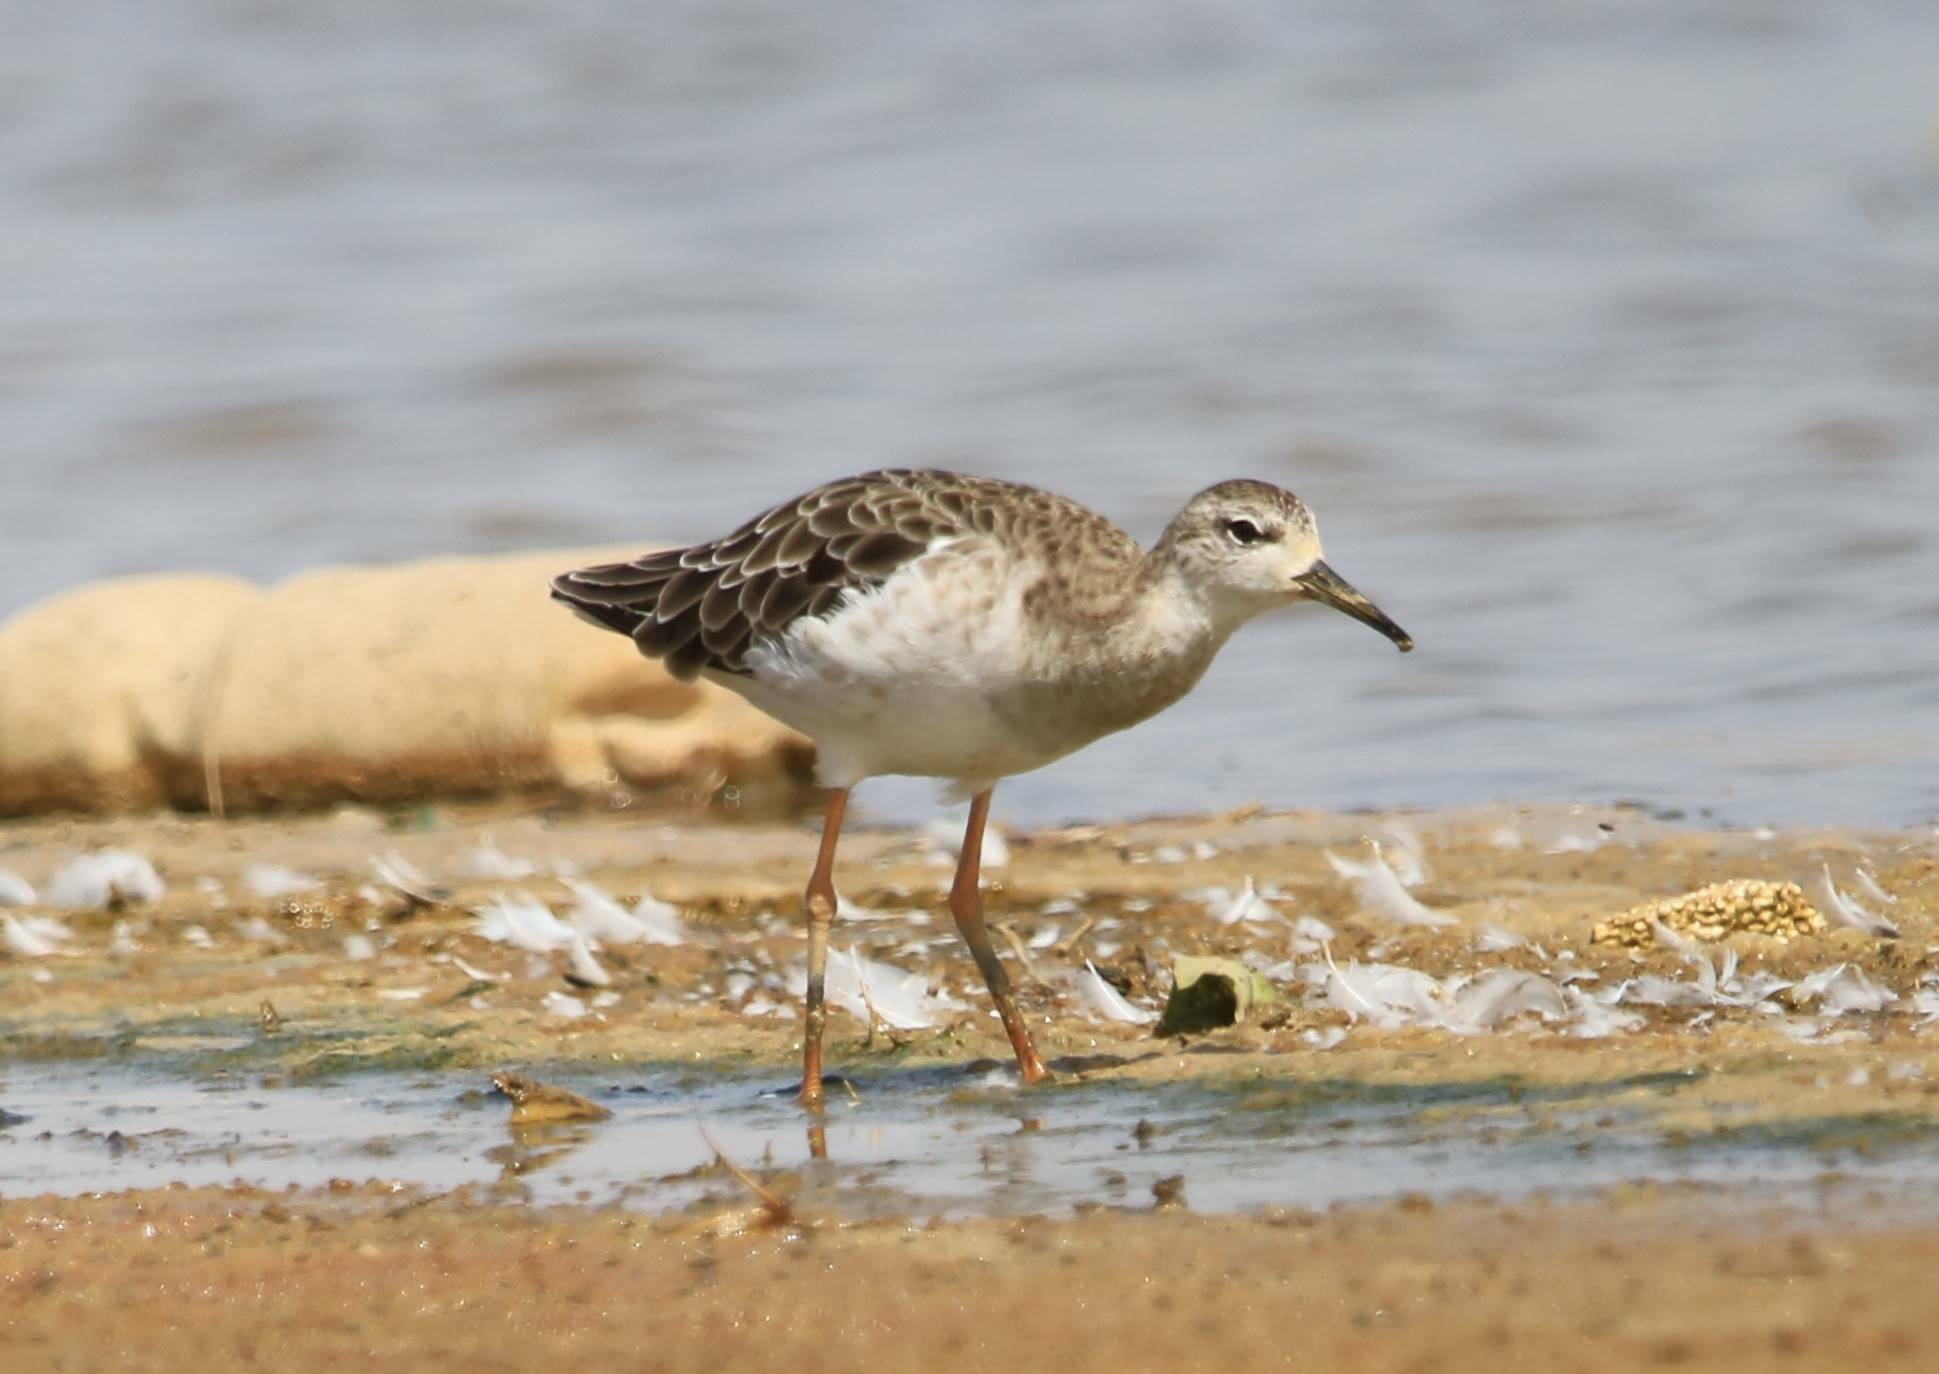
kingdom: Animalia
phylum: Chordata
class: Aves
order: Charadriiformes
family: Scolopacidae
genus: Calidris
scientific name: Calidris pugnax
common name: Ruff
